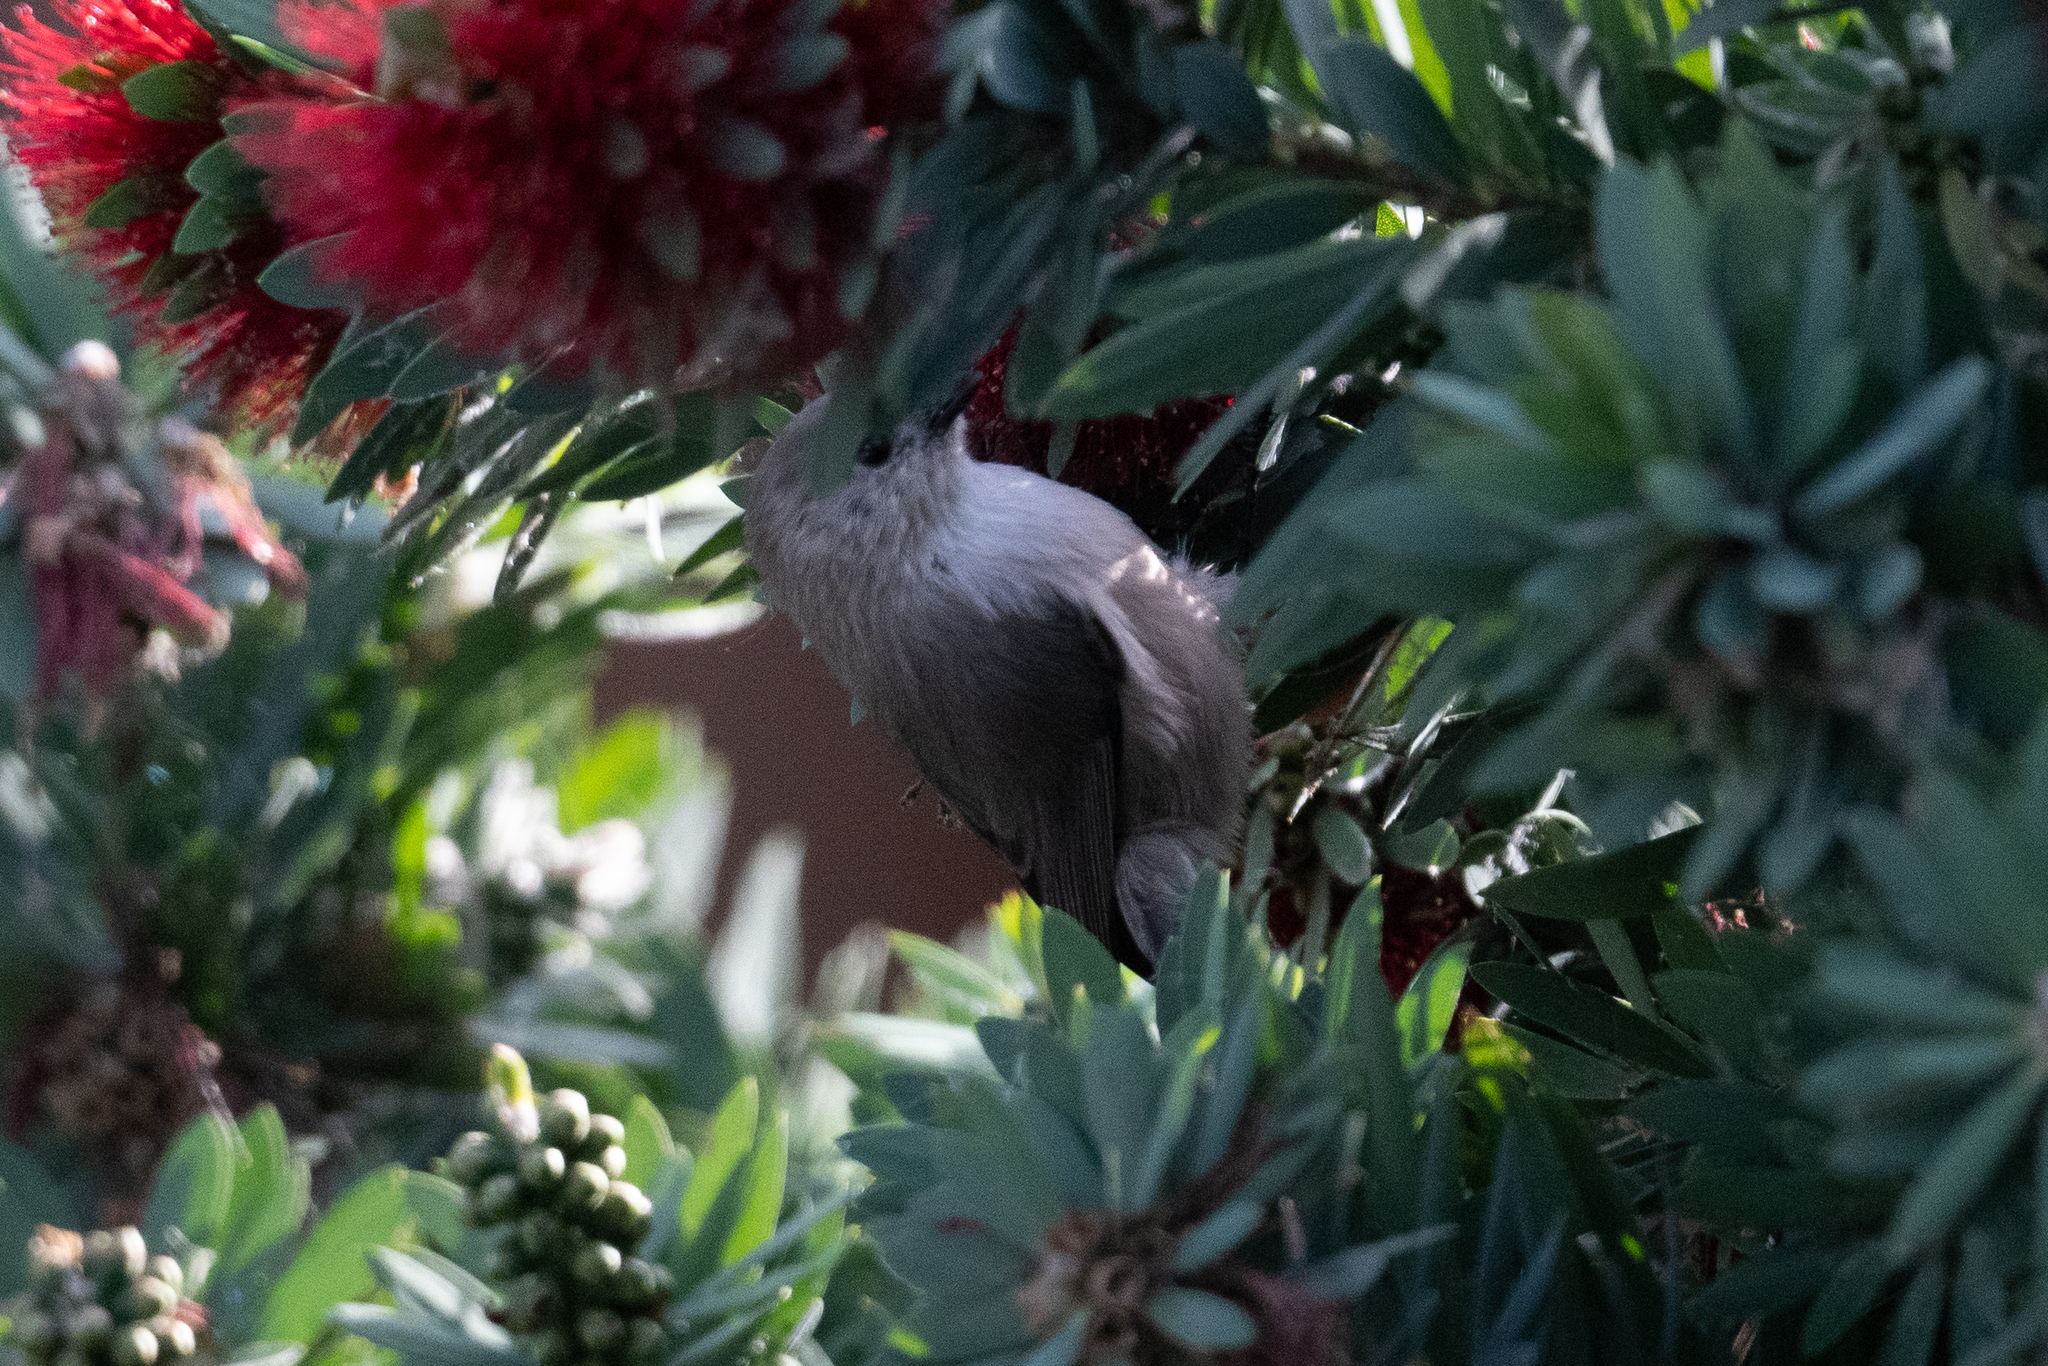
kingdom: Animalia
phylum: Chordata
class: Aves
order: Passeriformes
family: Aegithalidae
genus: Psaltriparus
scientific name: Psaltriparus minimus
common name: American bushtit
